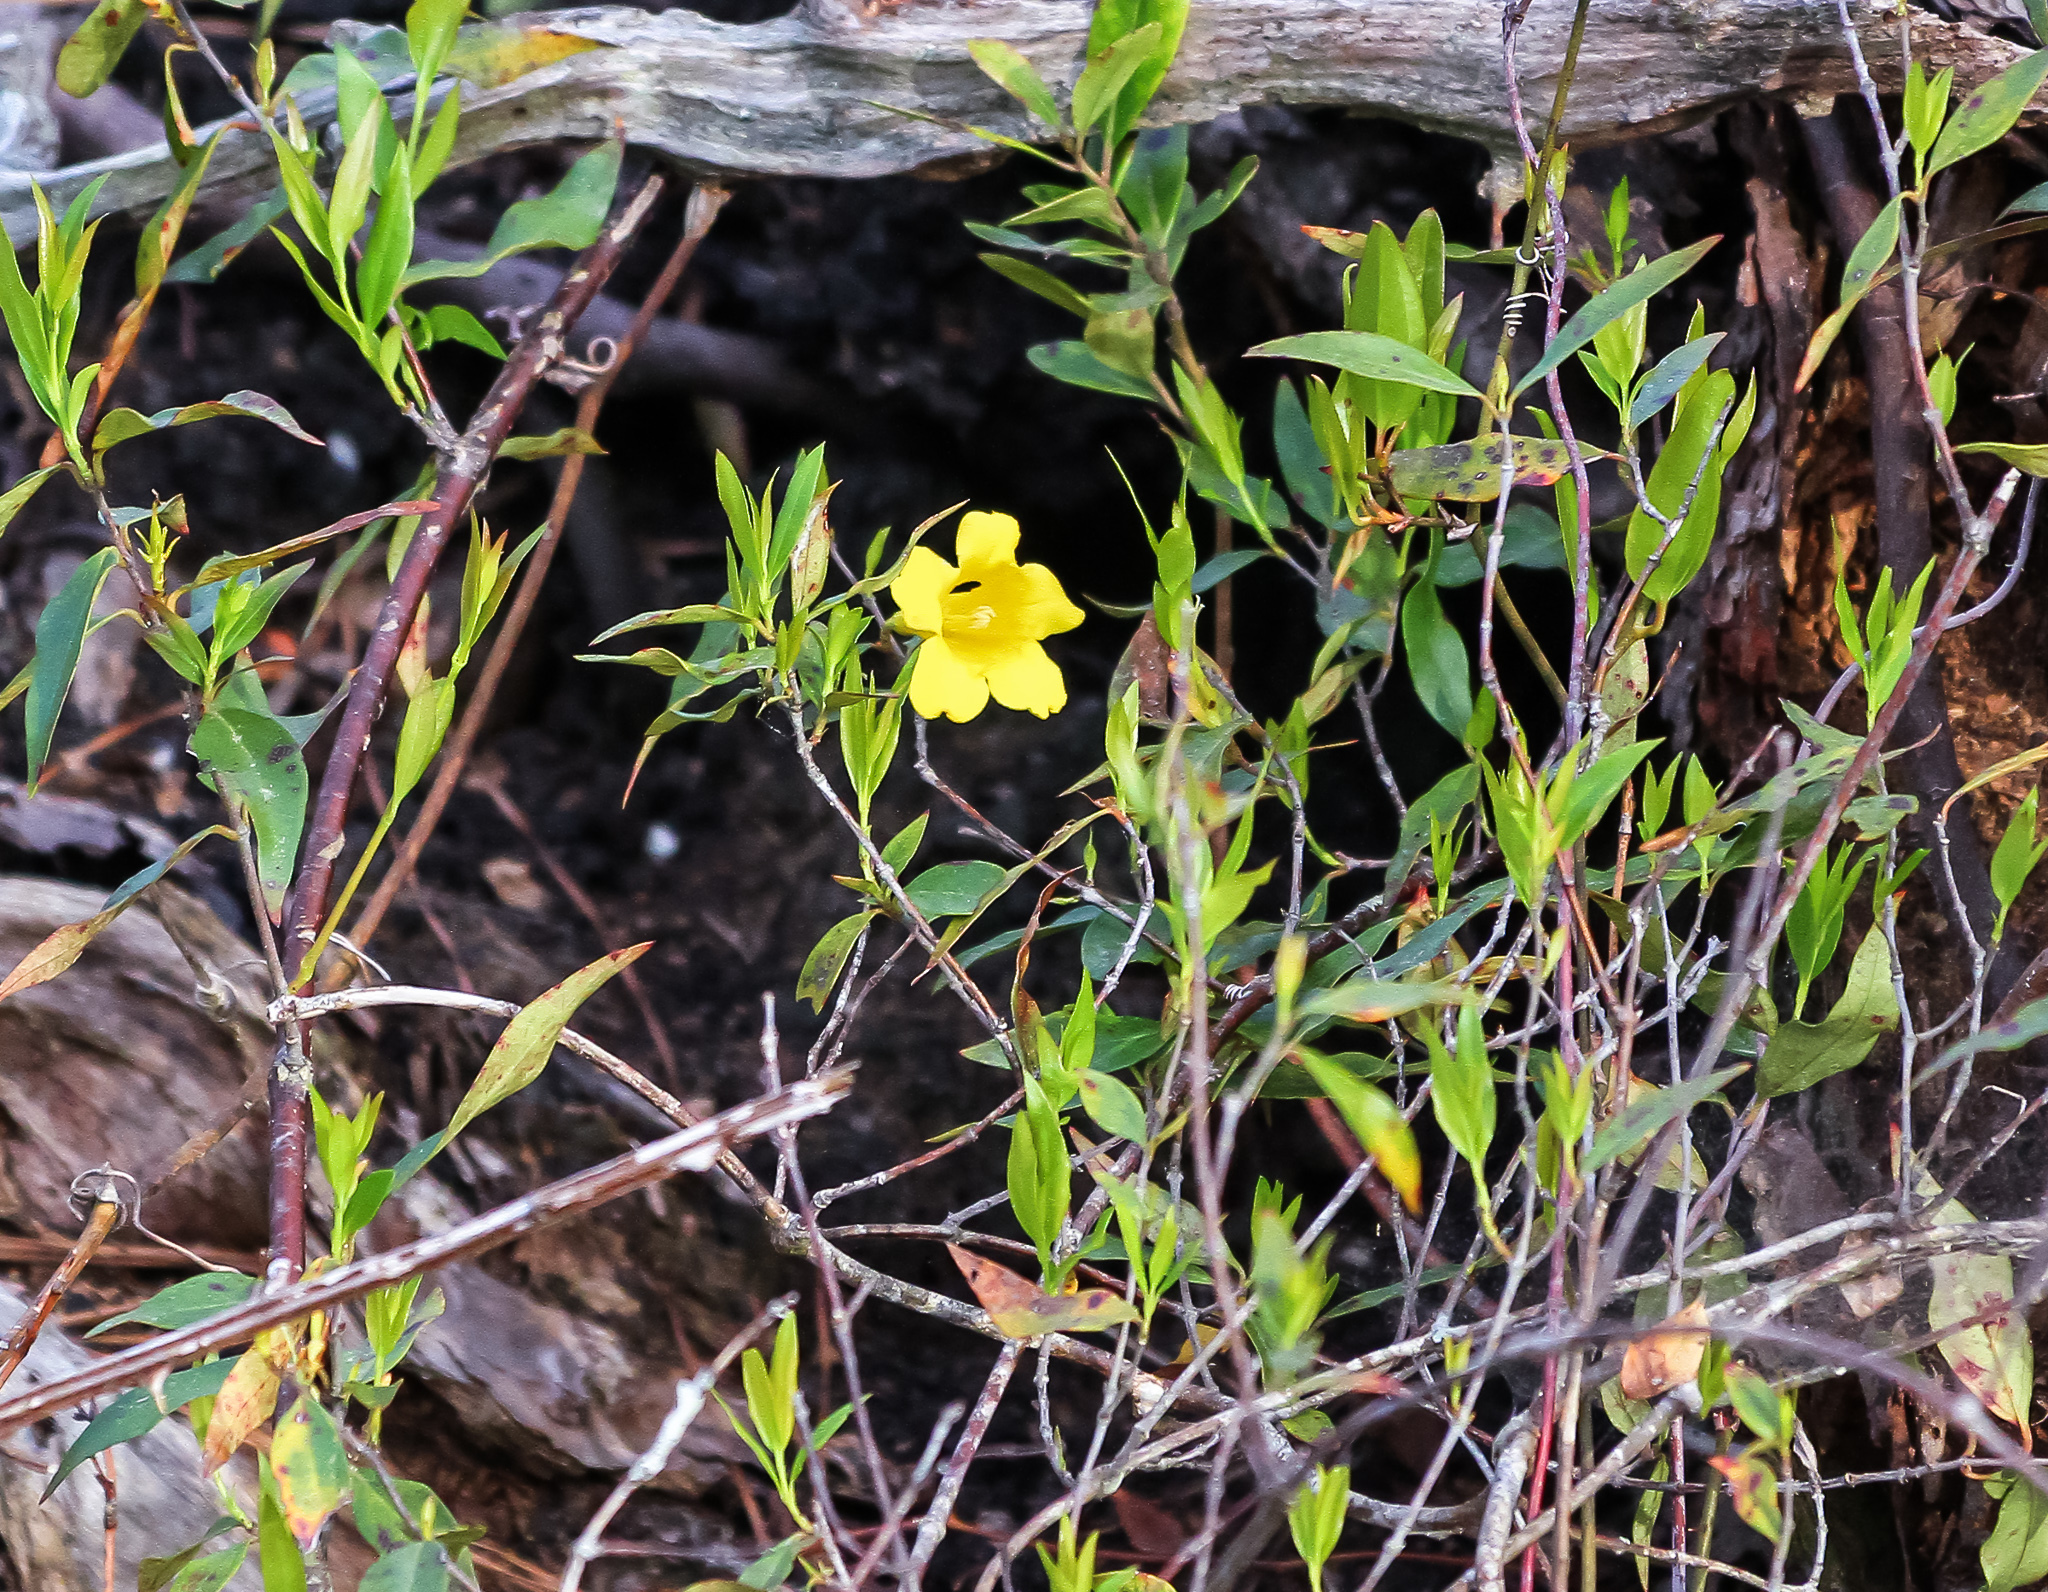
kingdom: Plantae
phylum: Tracheophyta
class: Magnoliopsida
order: Gentianales
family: Gelsemiaceae
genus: Gelsemium
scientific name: Gelsemium sempervirens
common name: Carolina-jasmine
